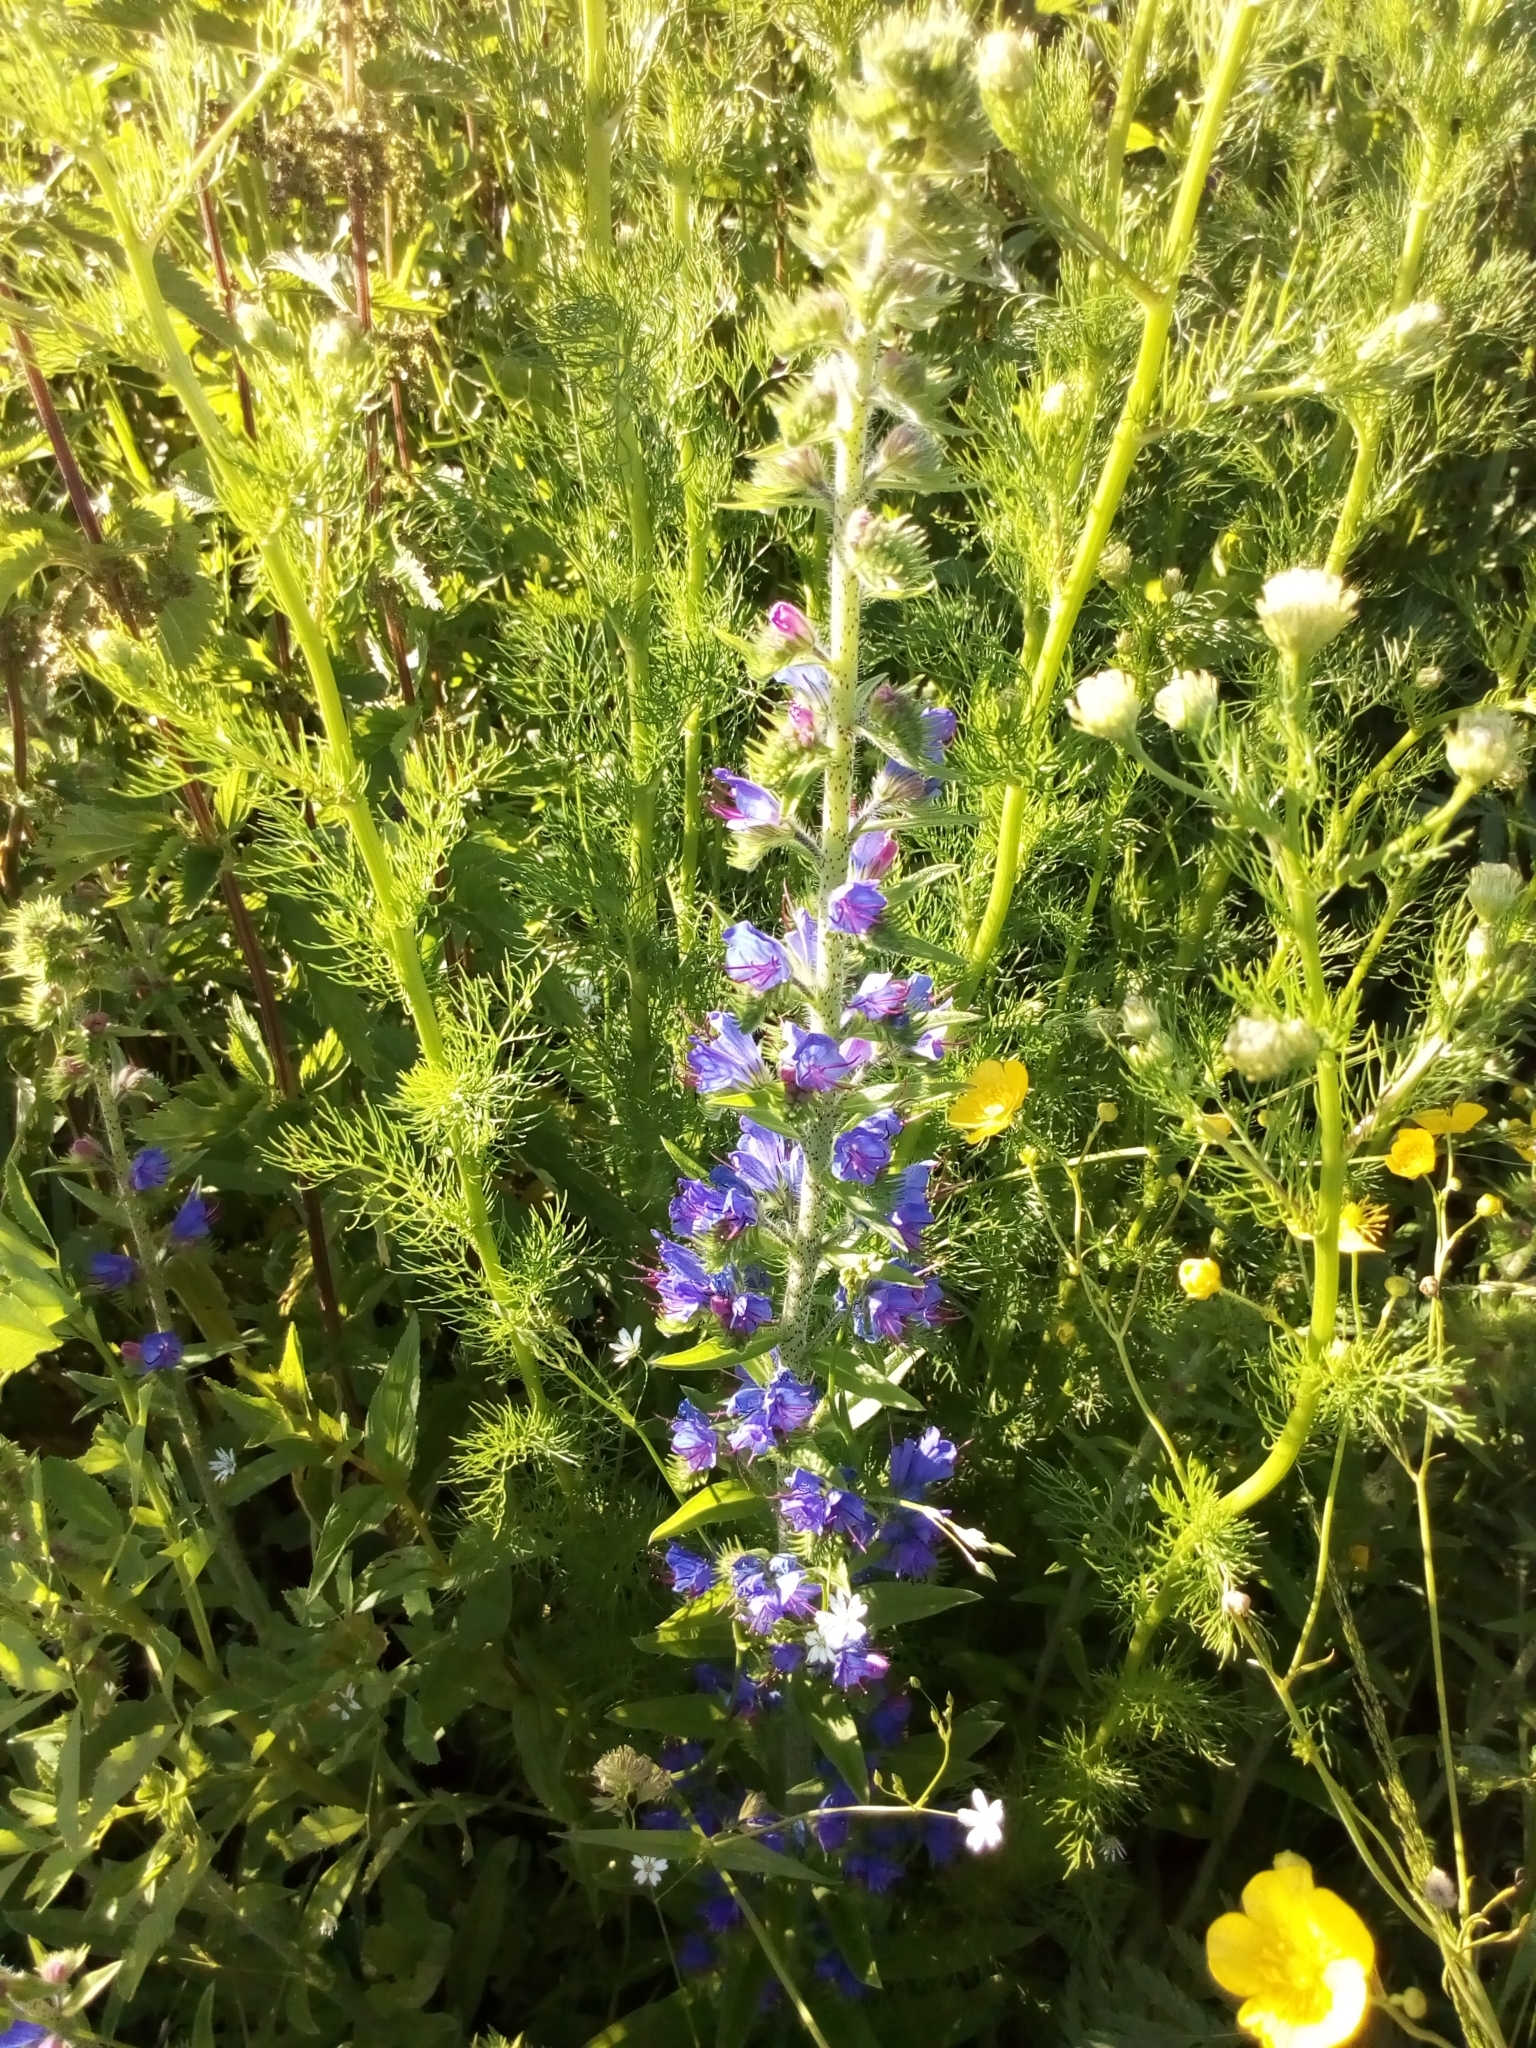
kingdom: Plantae
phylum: Tracheophyta
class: Magnoliopsida
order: Boraginales
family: Boraginaceae
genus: Echium
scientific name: Echium vulgare
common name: Common viper's bugloss
